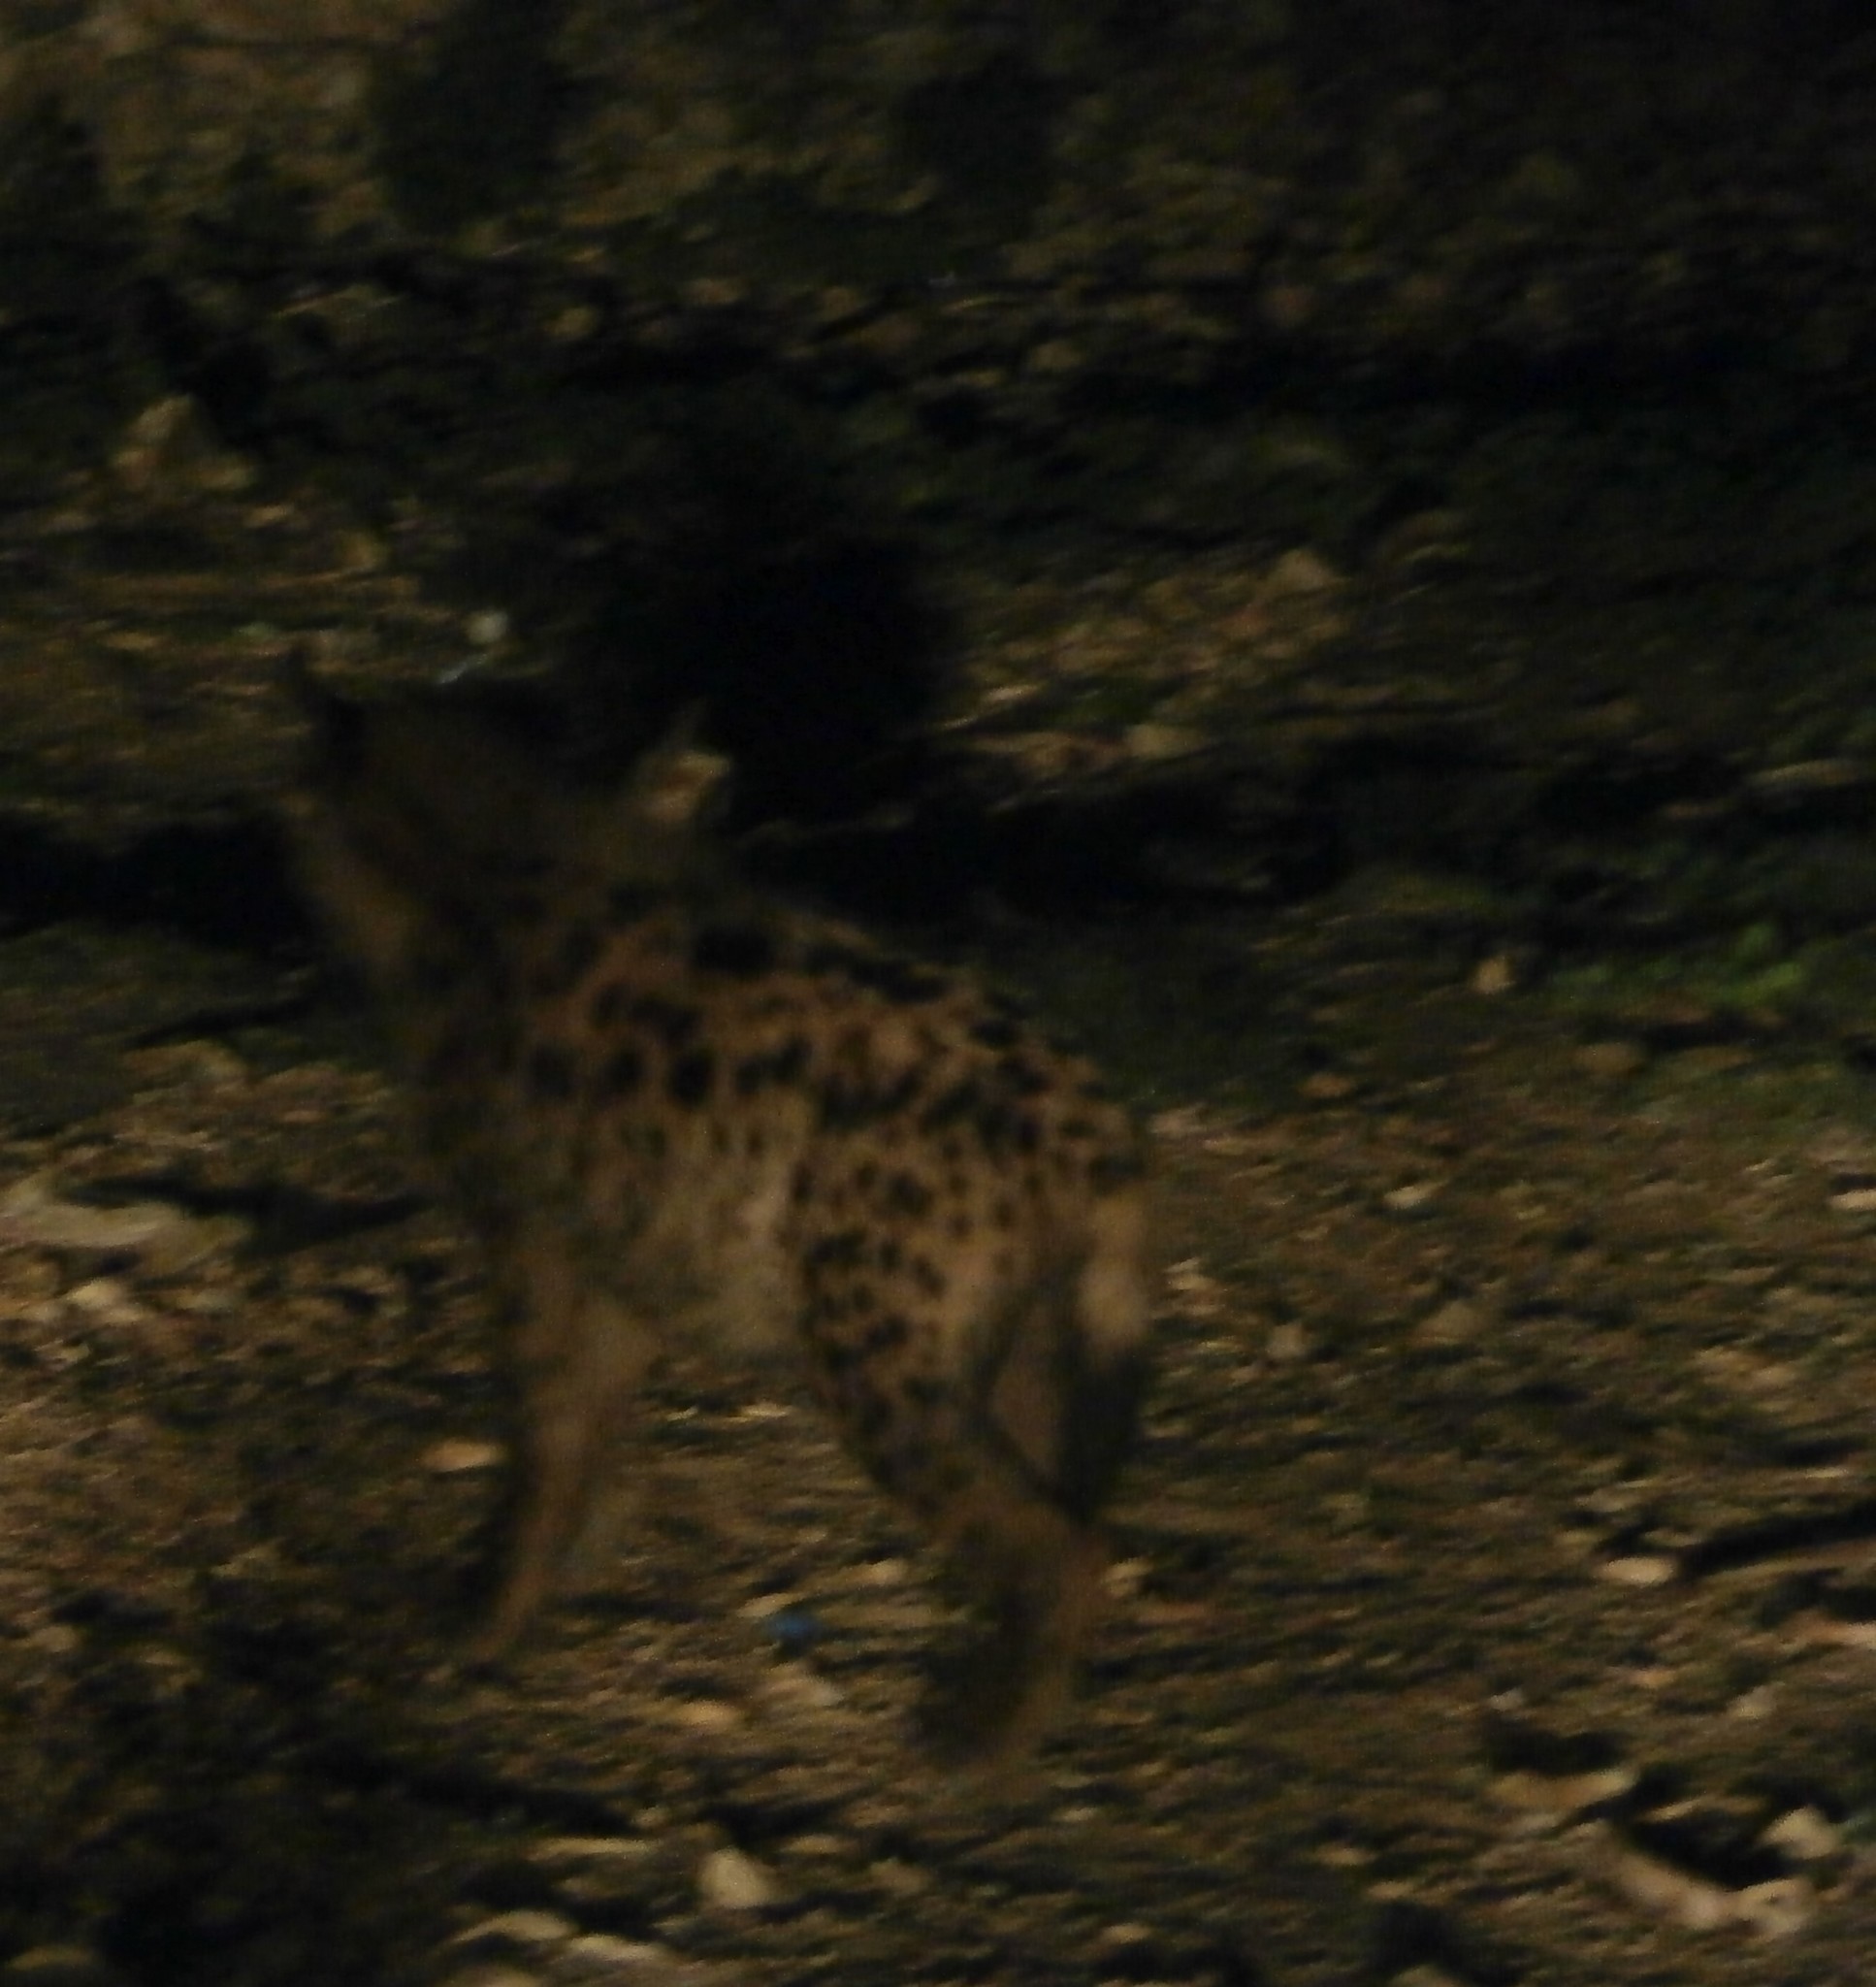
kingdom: Animalia
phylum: Chordata
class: Mammalia
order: Carnivora
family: Hyaenidae
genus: Crocuta
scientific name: Crocuta crocuta
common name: Spotted hyaena
